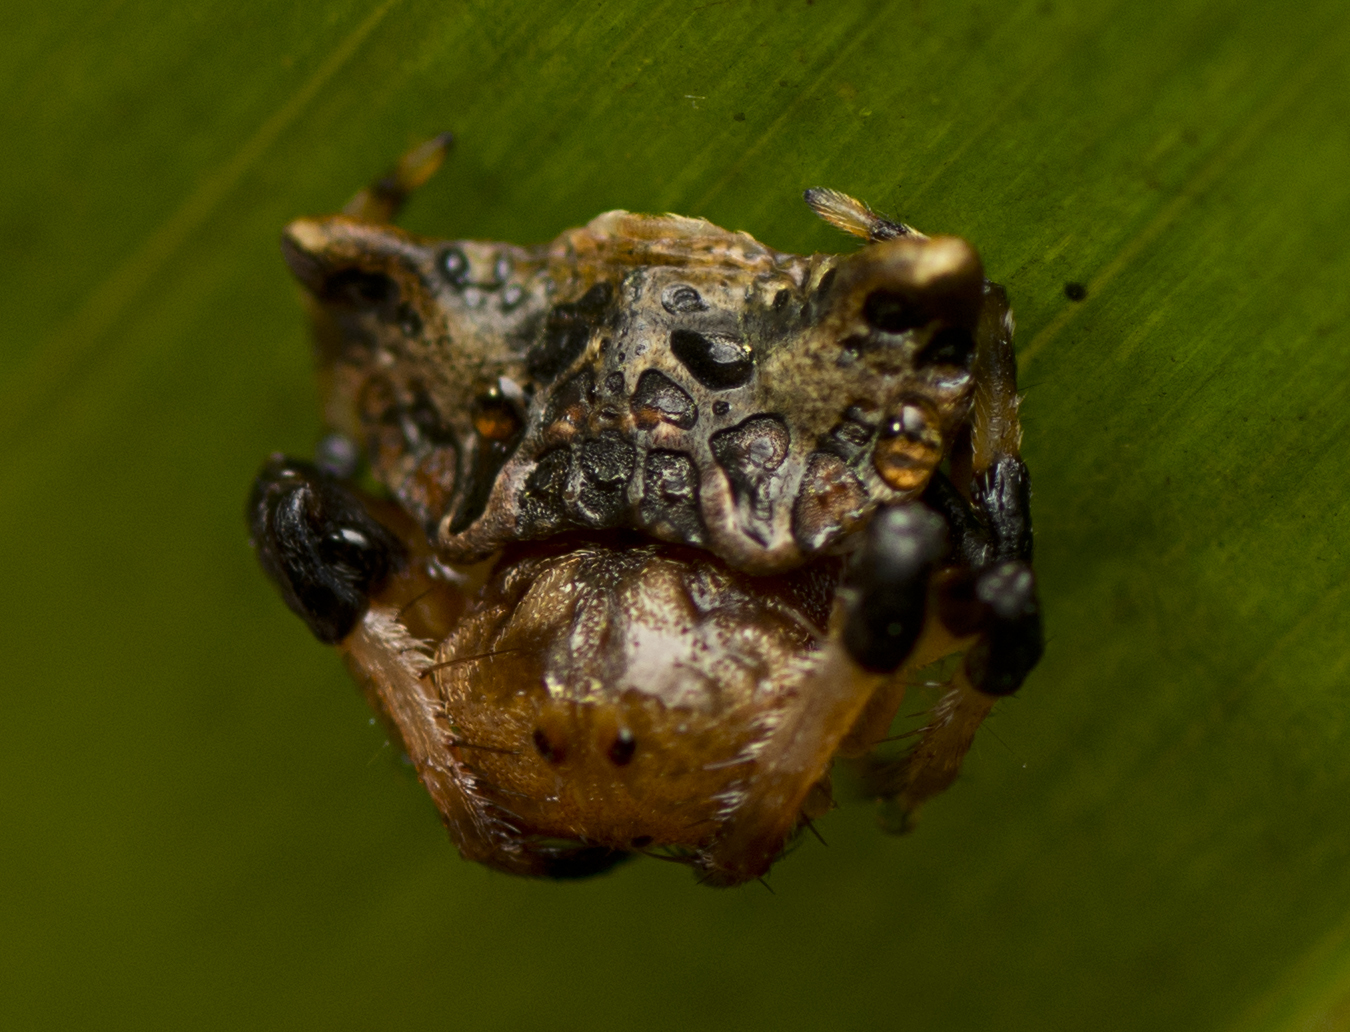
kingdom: Animalia
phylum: Arthropoda
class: Arachnida
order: Araneae
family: Arkyidae
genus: Arkys
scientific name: Arkys curtulus
